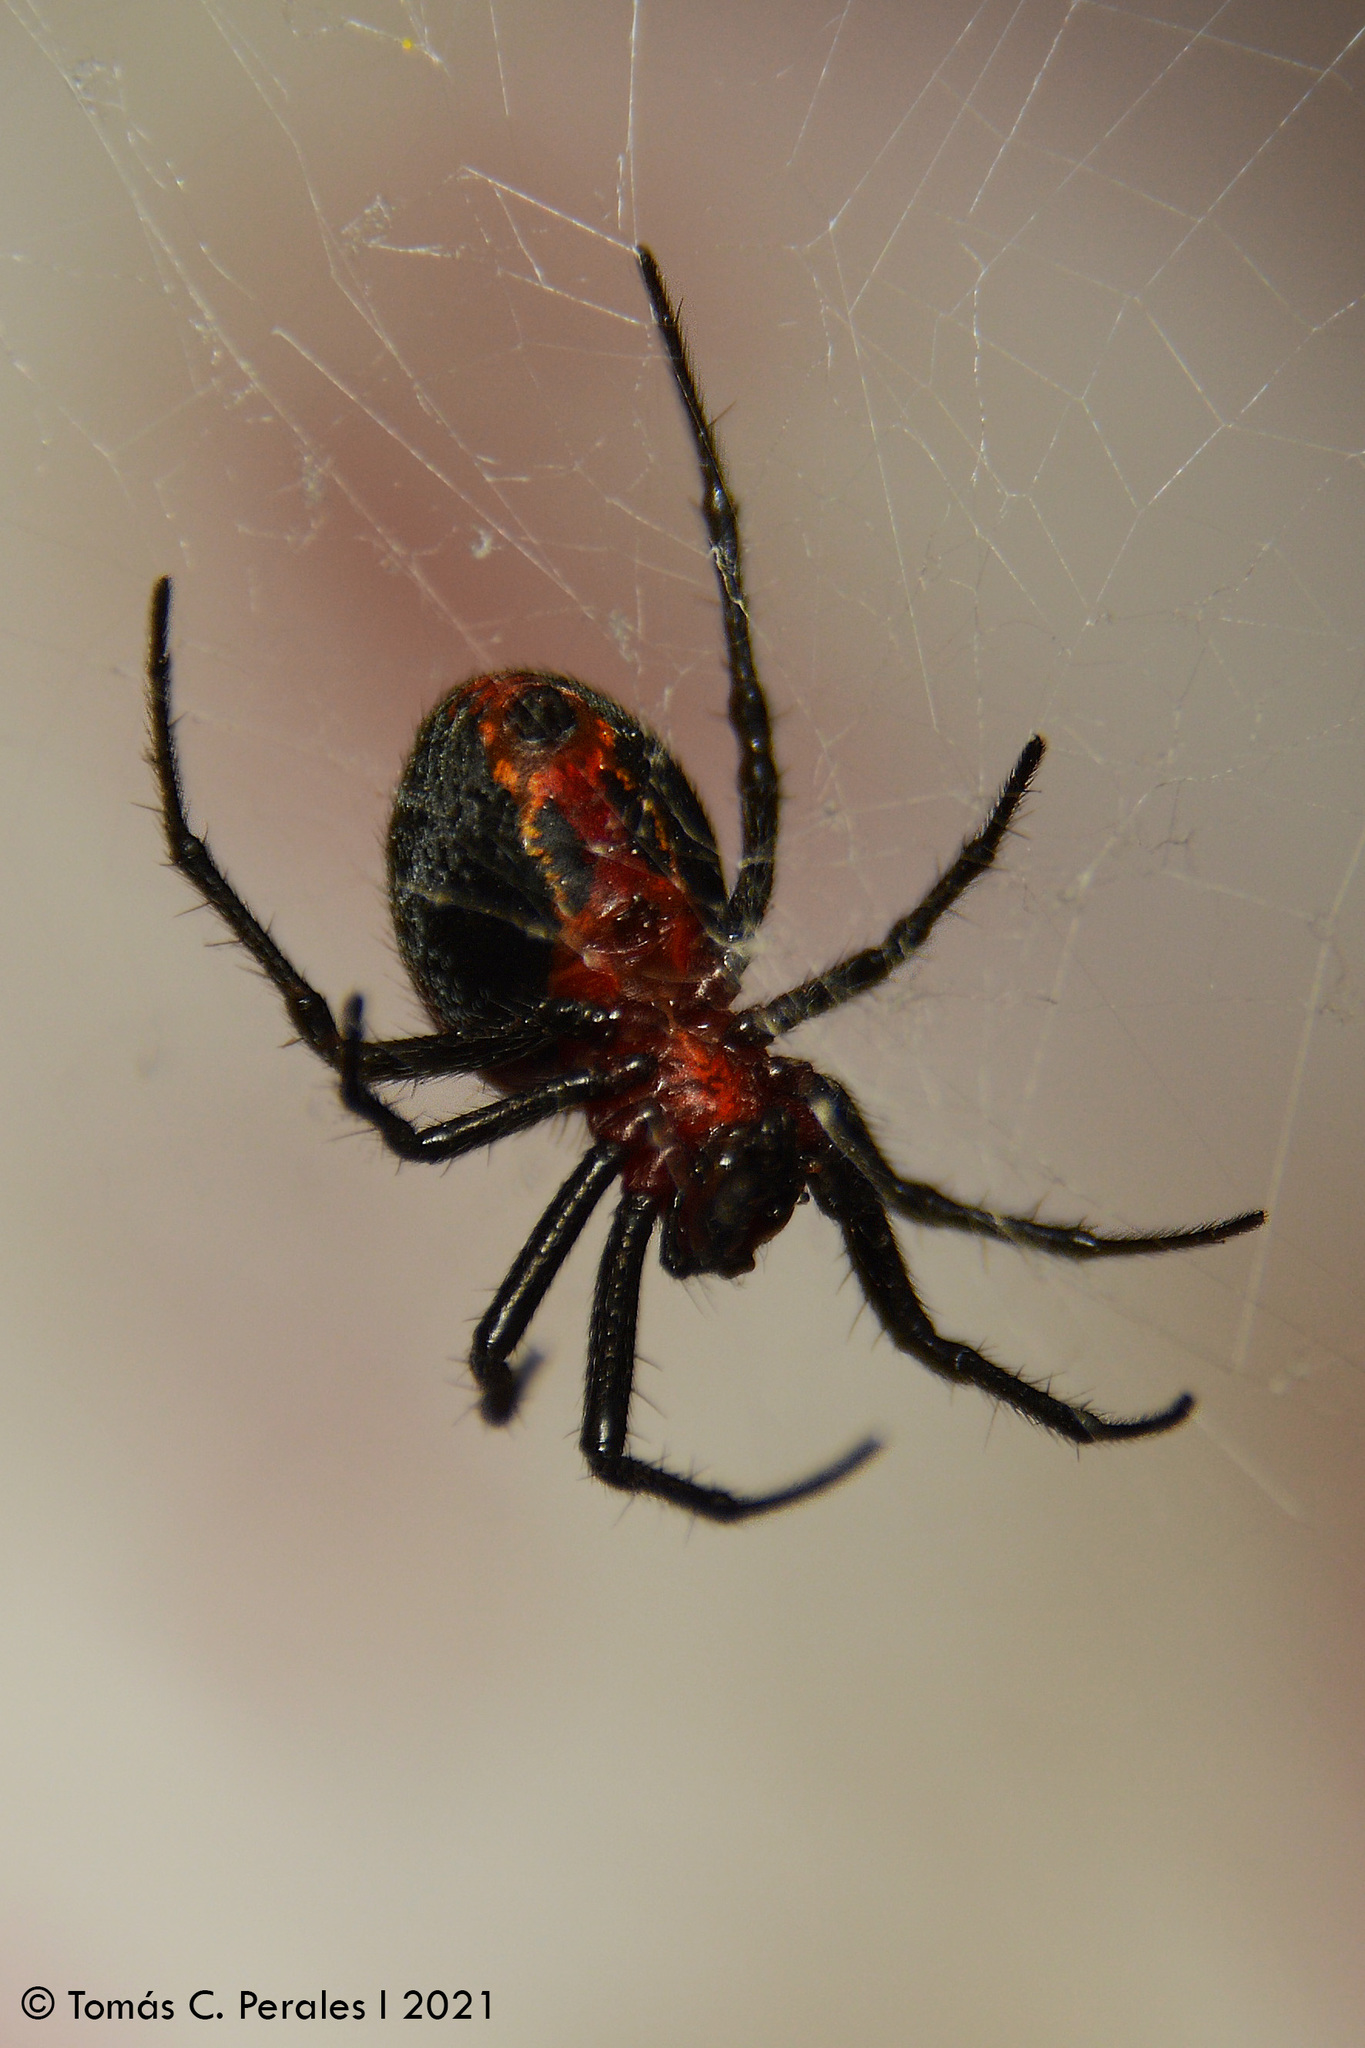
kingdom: Animalia
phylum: Arthropoda
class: Arachnida
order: Araneae
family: Araneidae
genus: Alpaida
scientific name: Alpaida carminea
